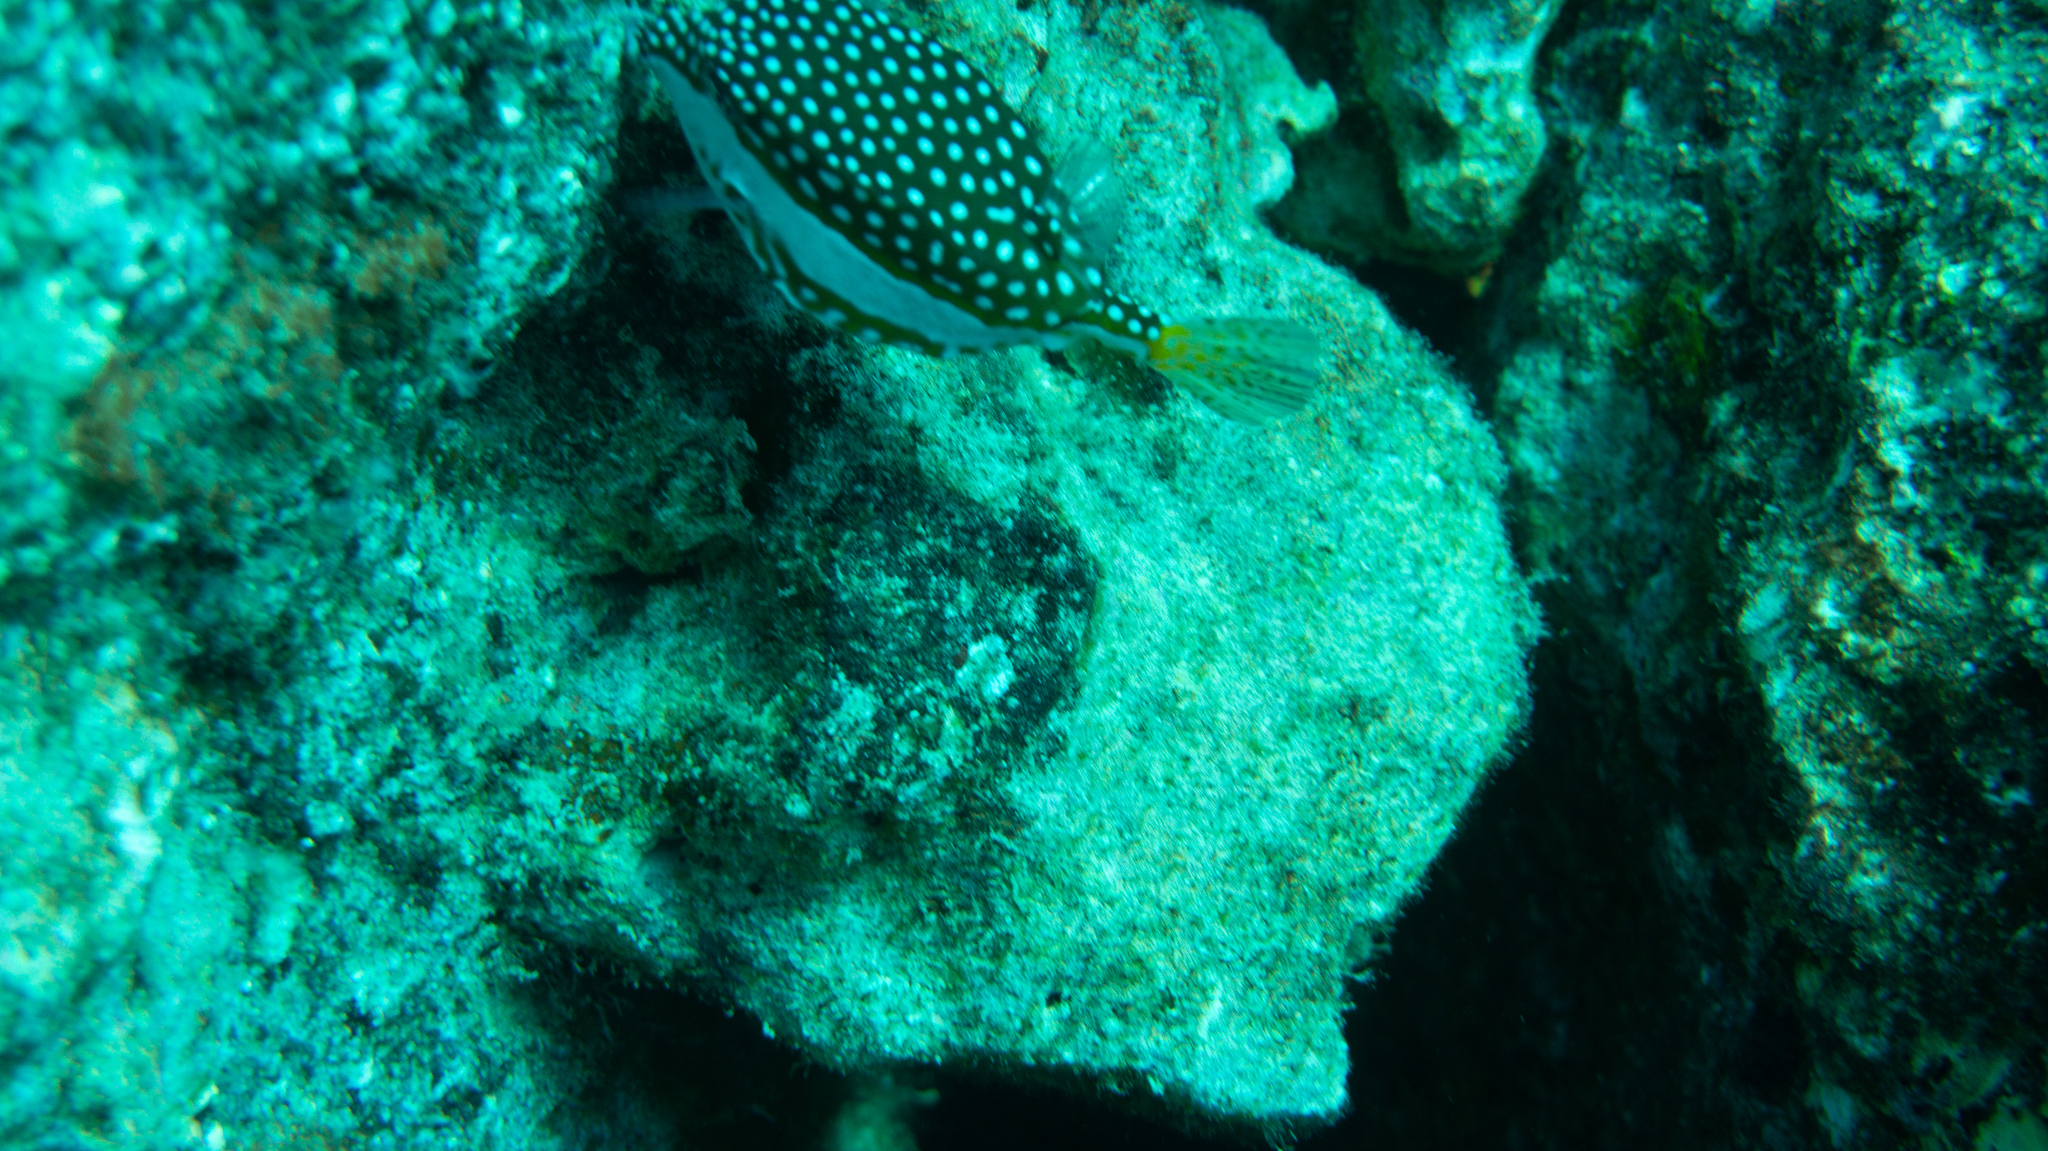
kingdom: Animalia
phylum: Chordata
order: Tetraodontiformes
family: Ostraciidae
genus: Ostracion
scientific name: Ostracion whitleyi
